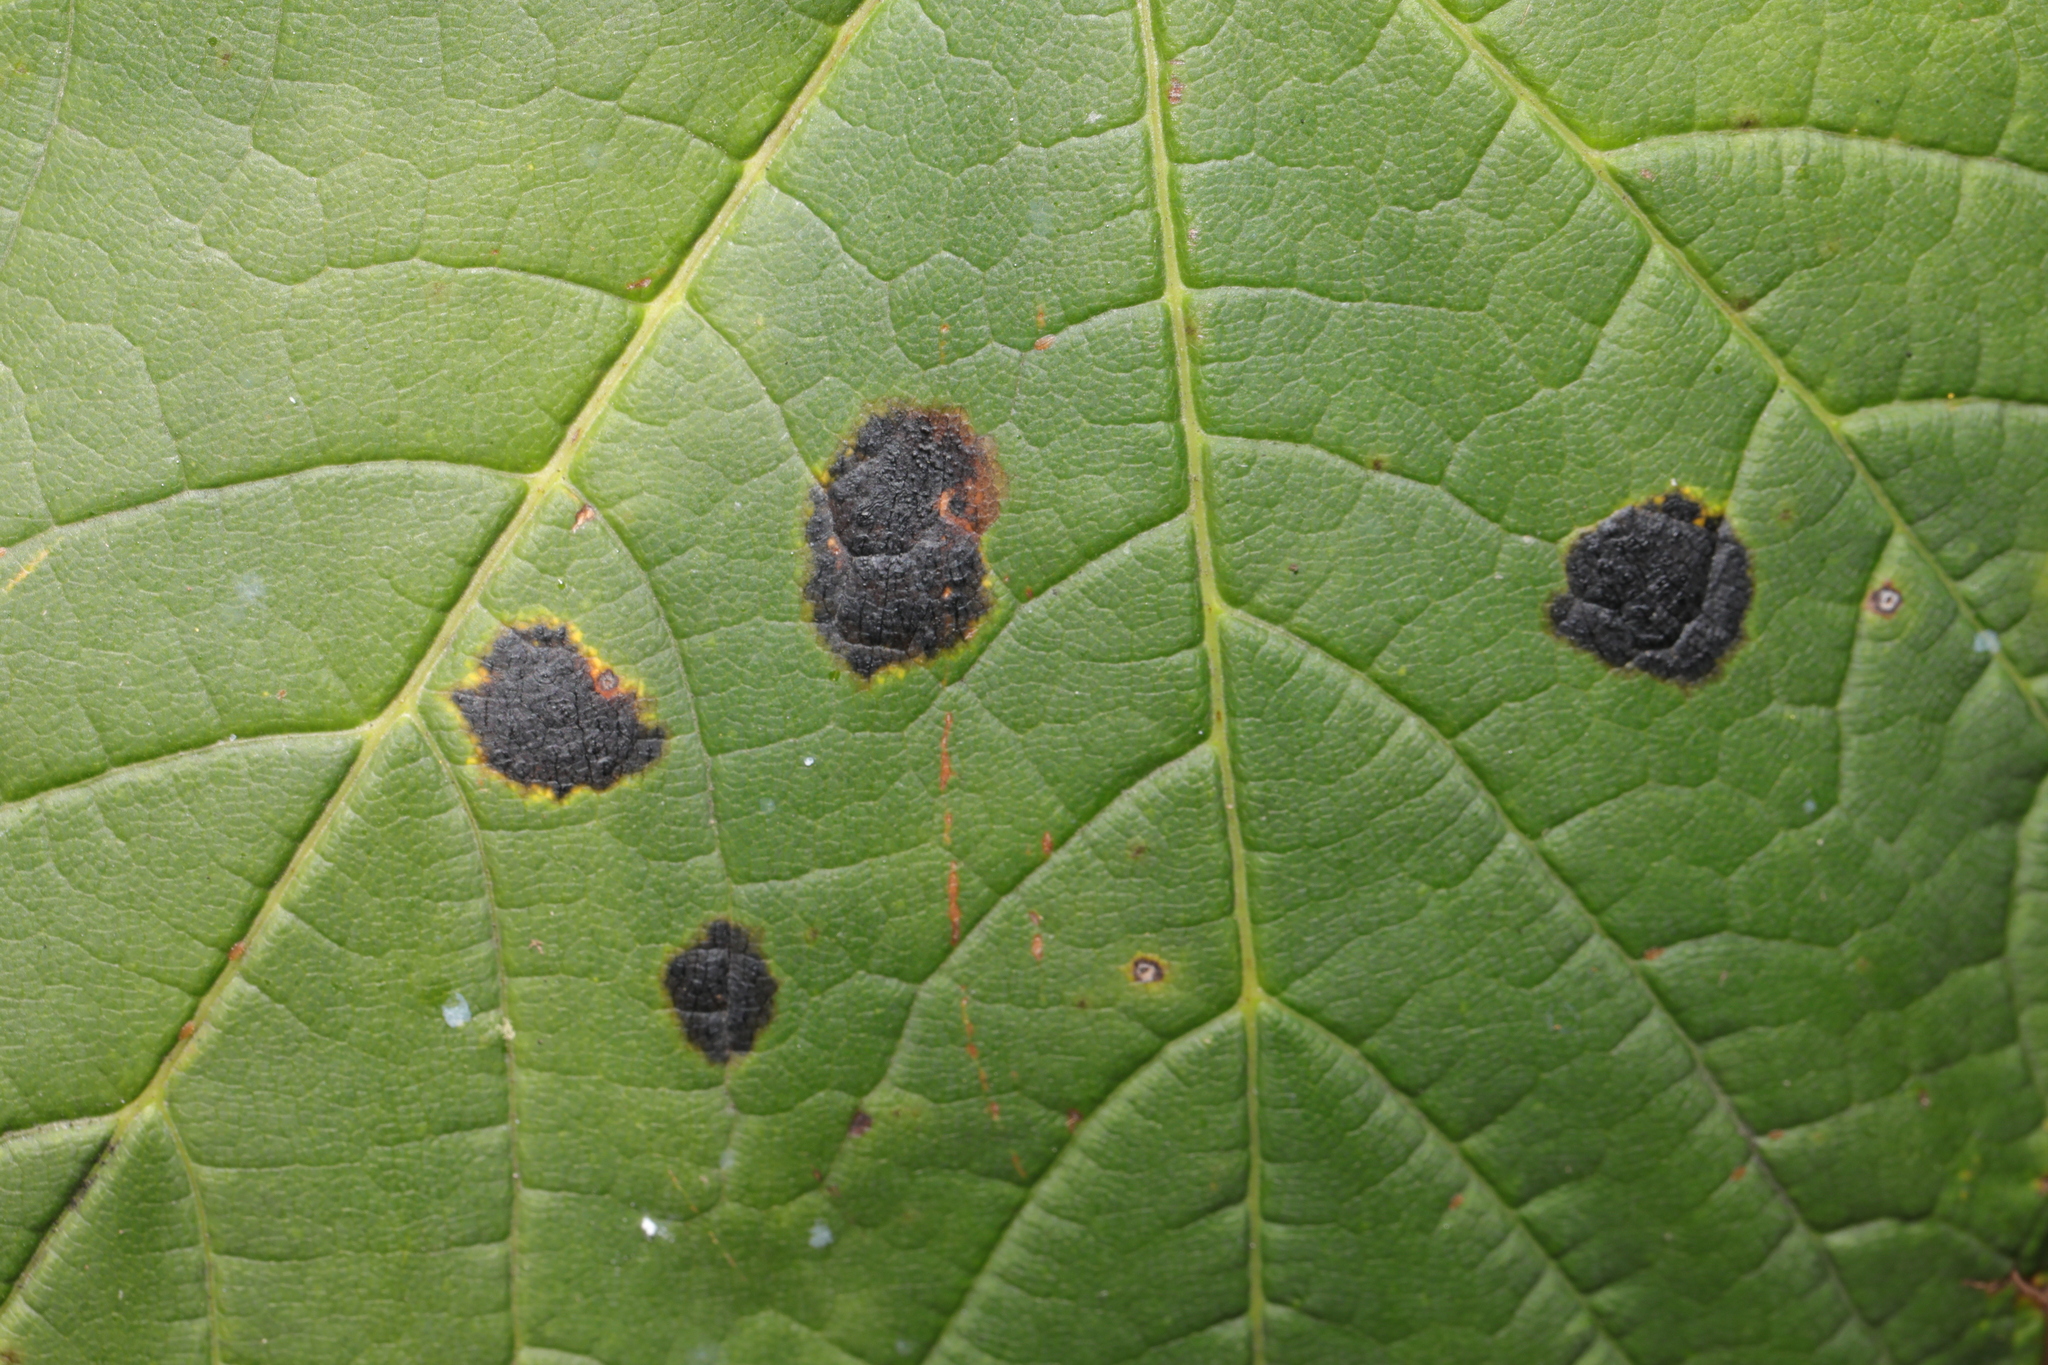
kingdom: Fungi
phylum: Ascomycota
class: Leotiomycetes
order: Rhytismatales
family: Rhytismataceae
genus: Rhytisma
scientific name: Rhytisma acerinum
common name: European tar spot
